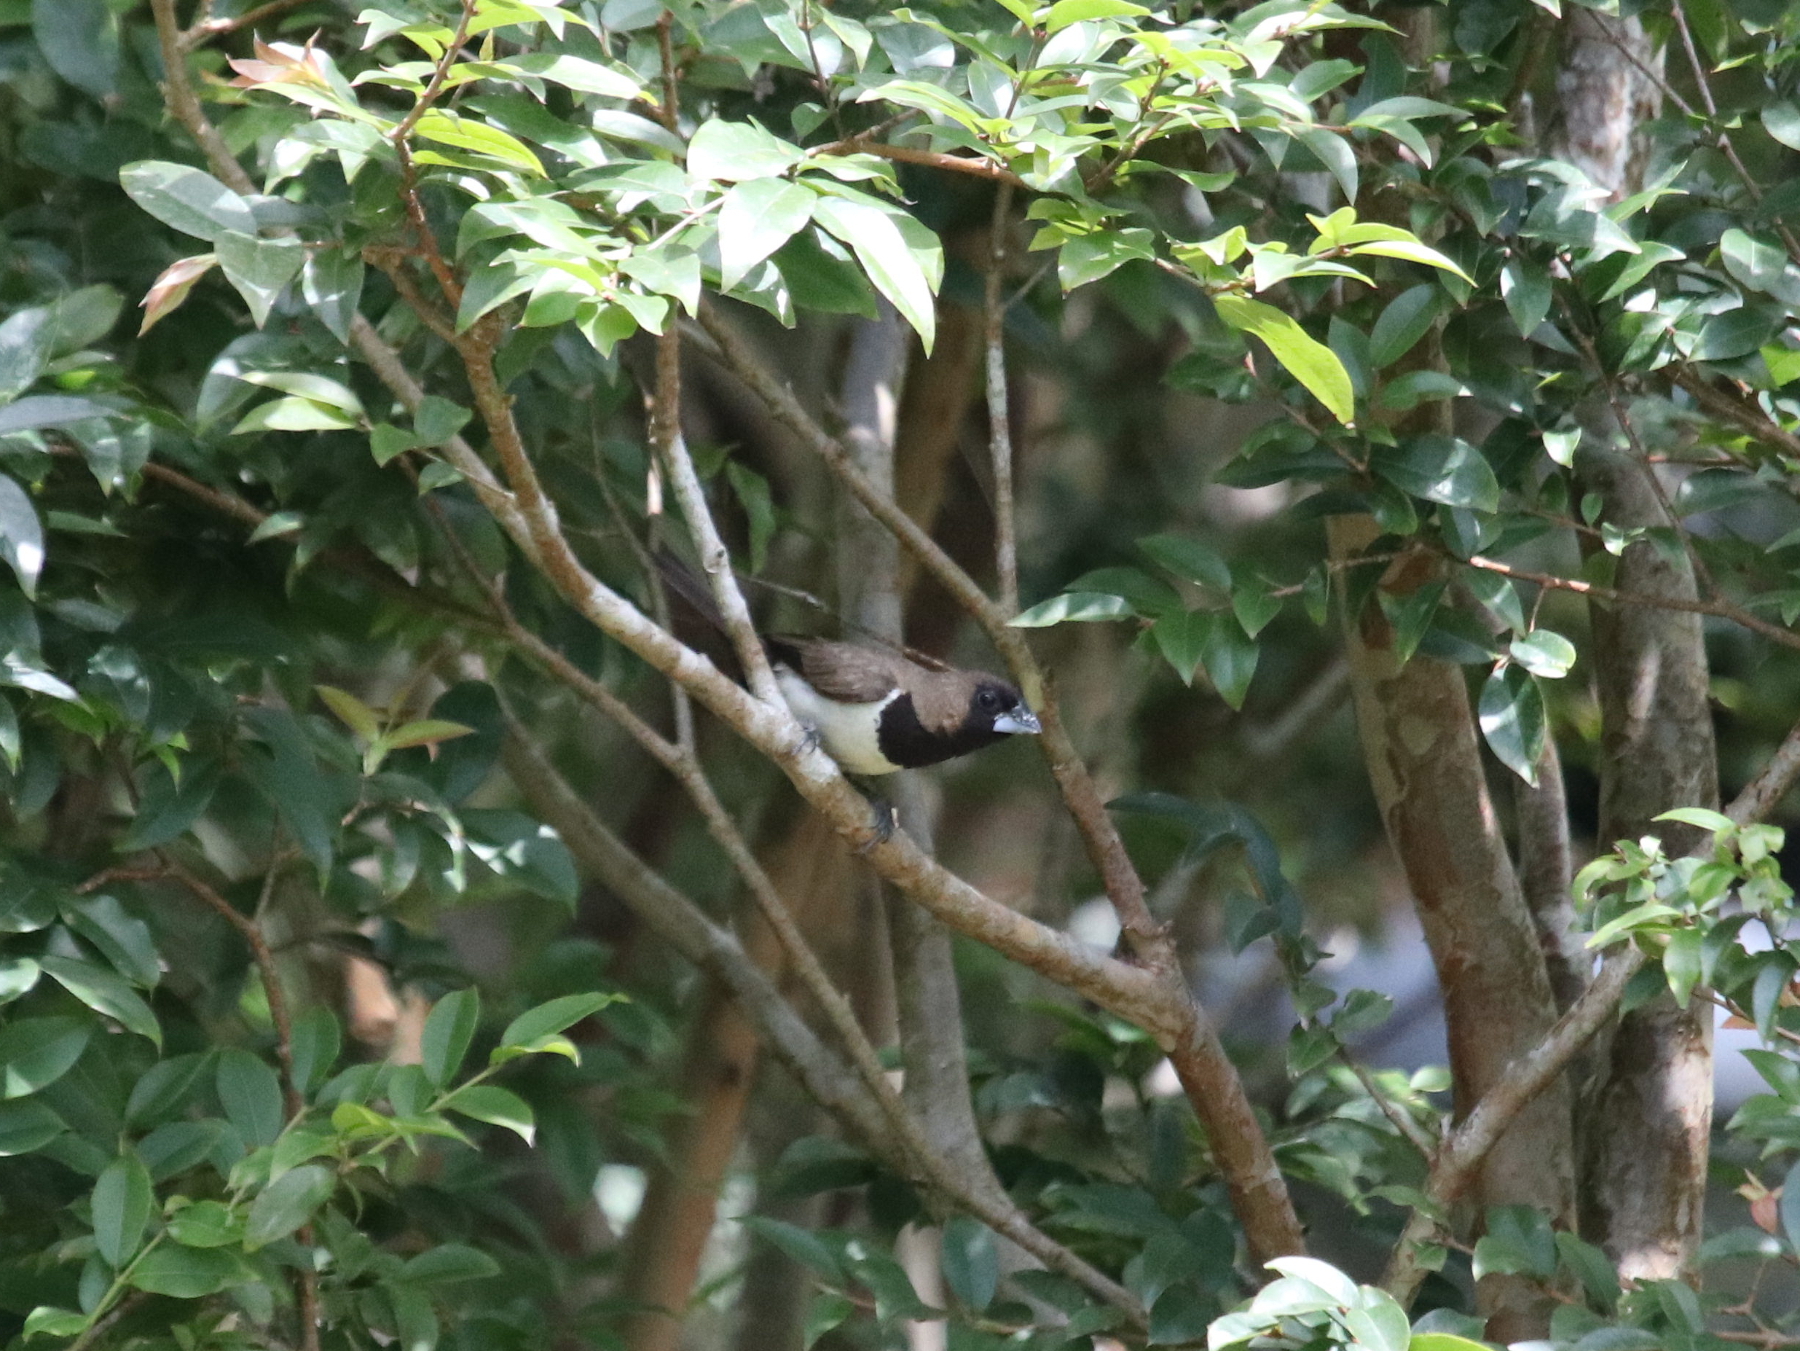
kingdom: Animalia
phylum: Chordata
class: Aves
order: Passeriformes
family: Estrildidae
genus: Lonchura
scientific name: Lonchura leucogastroides
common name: Javan munia
